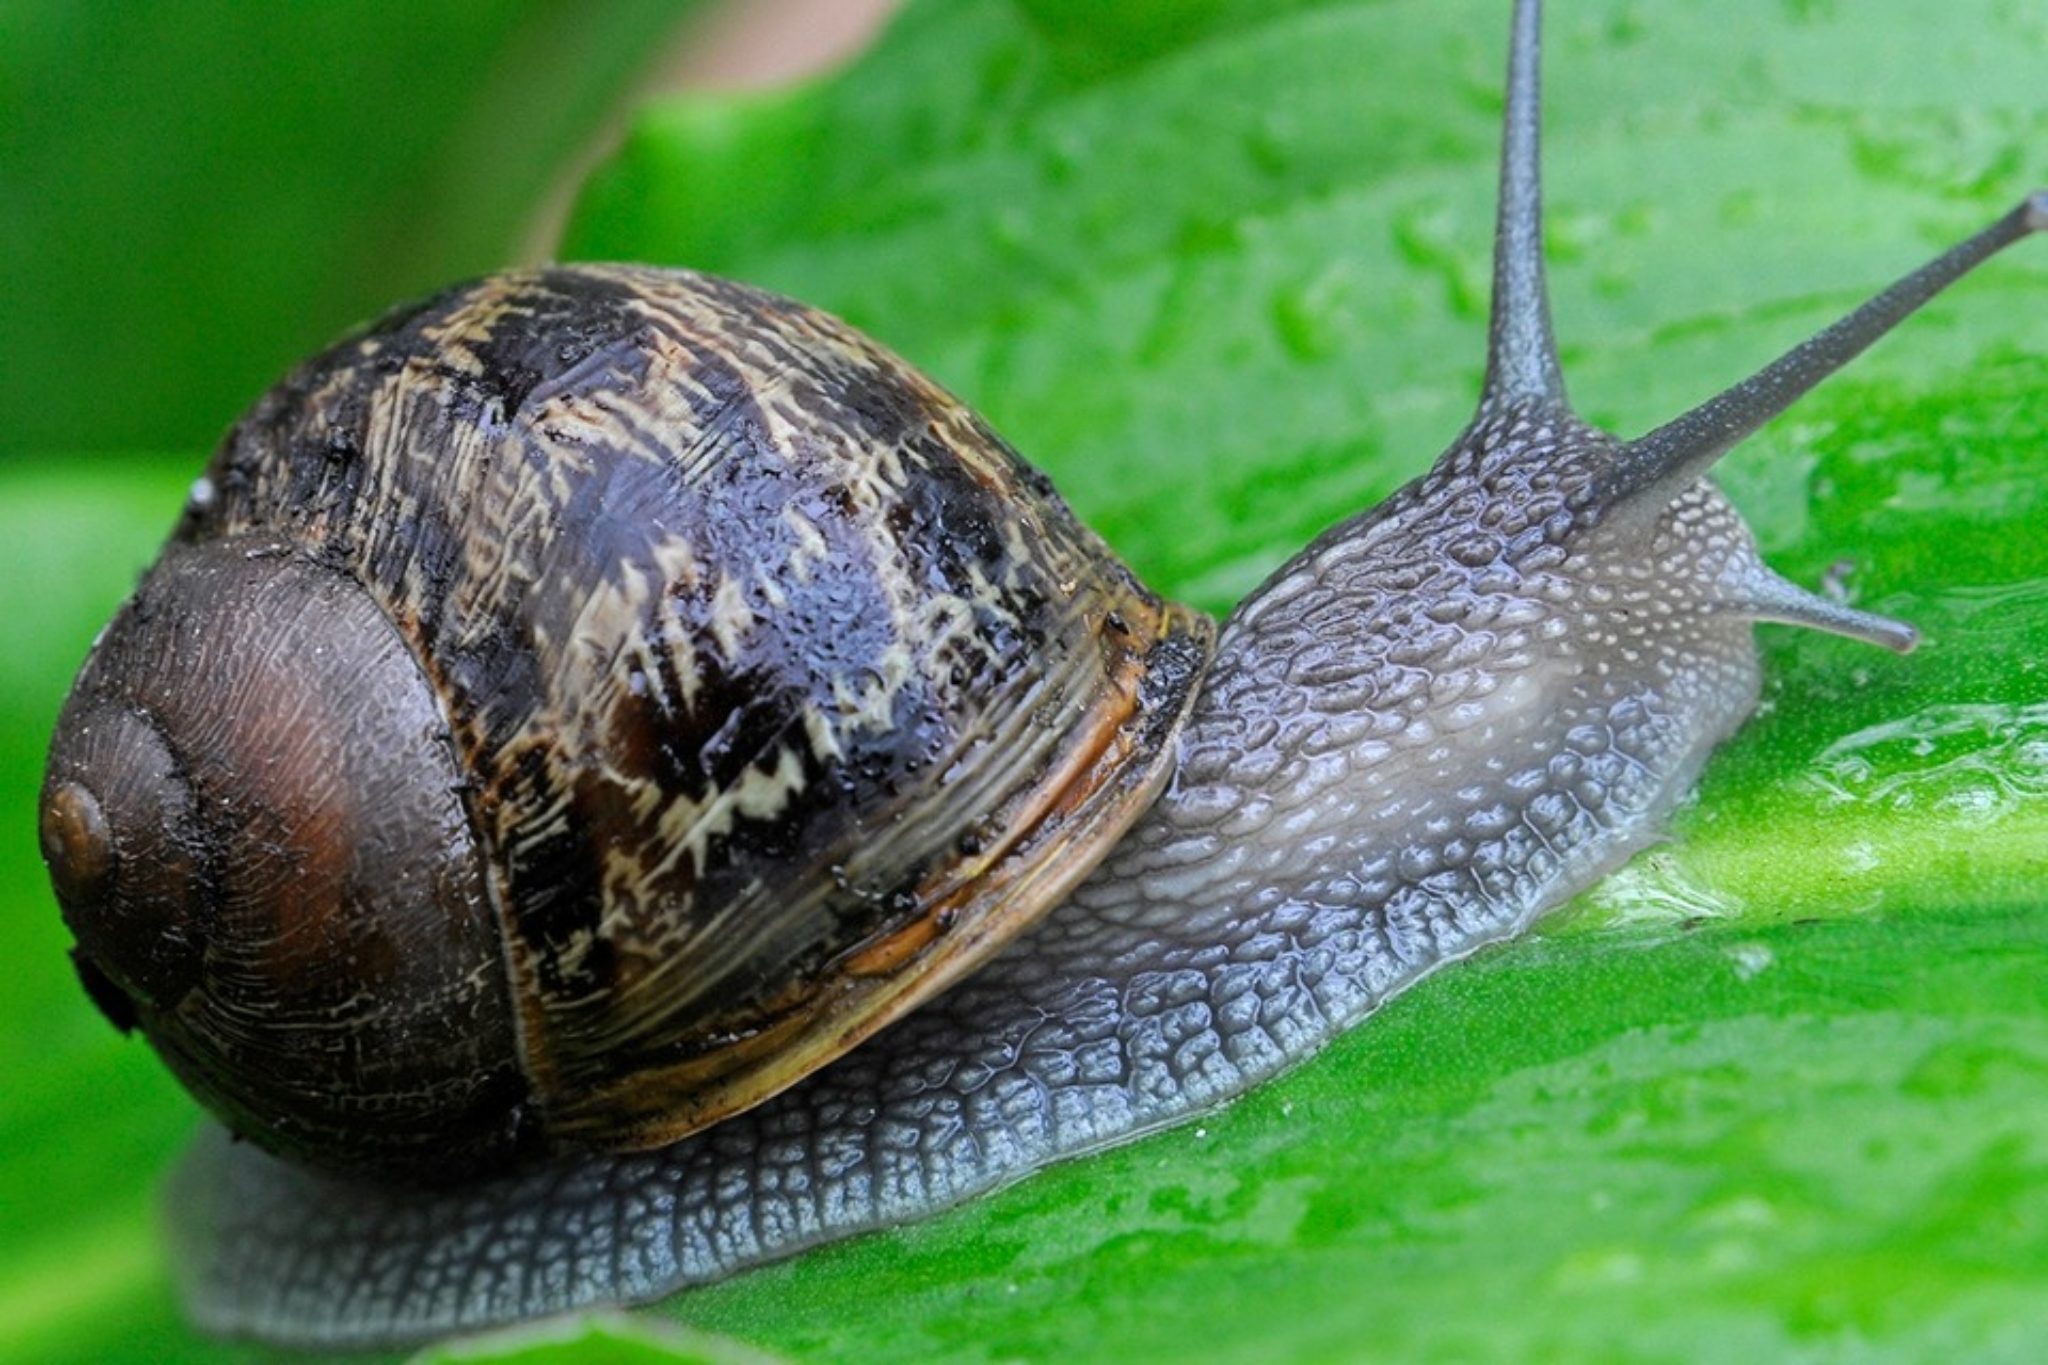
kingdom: Animalia
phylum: Mollusca
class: Gastropoda
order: Stylommatophora
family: Helicidae
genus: Cornu
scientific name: Cornu aspersum
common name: Brown garden snail
